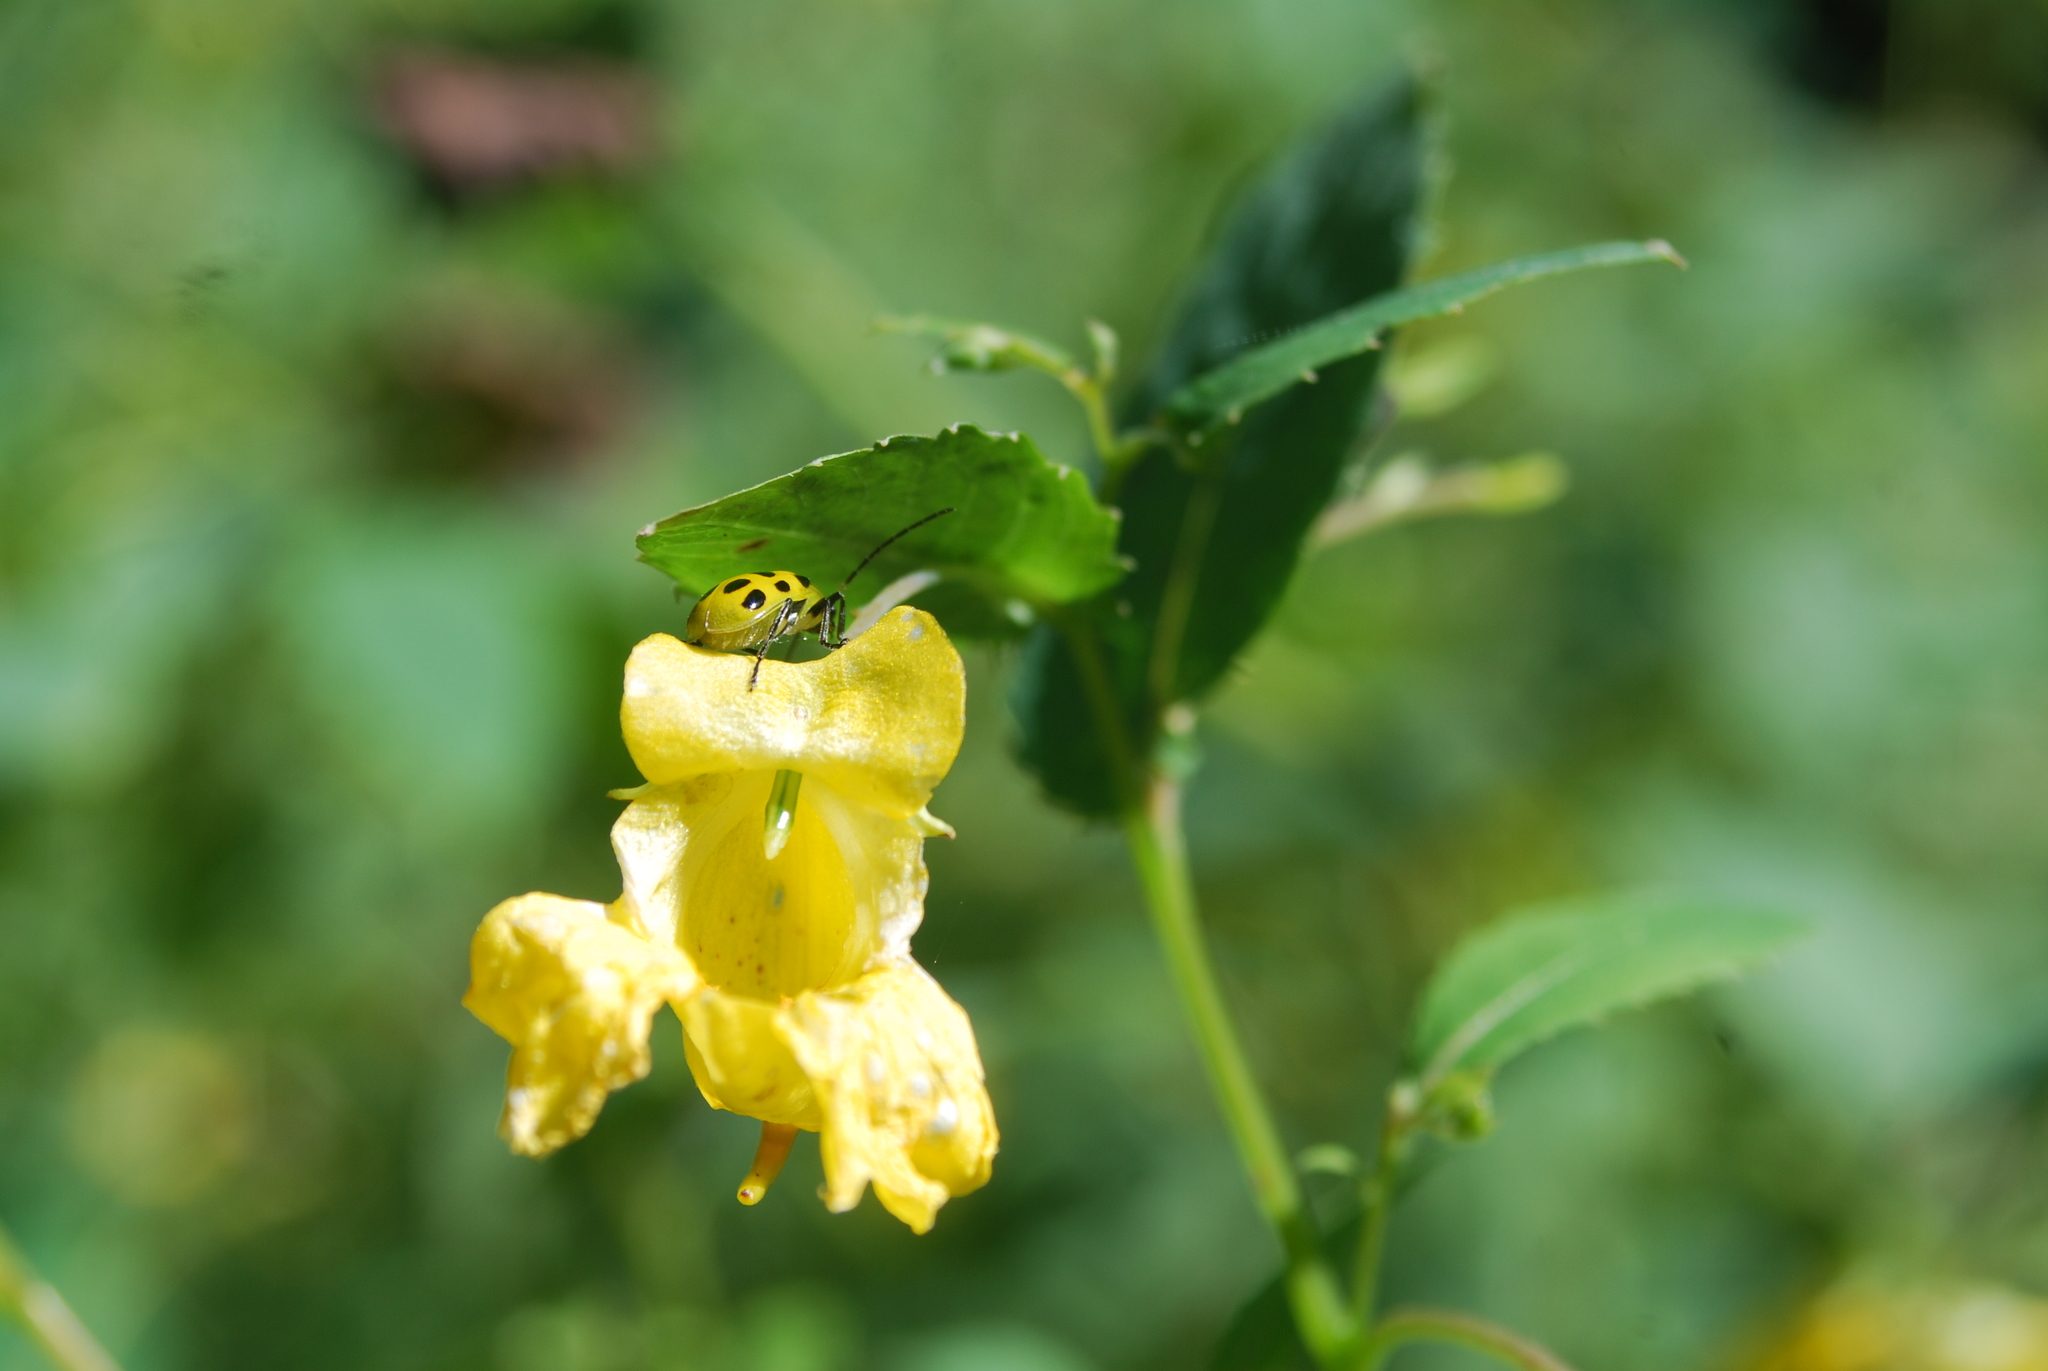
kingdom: Animalia
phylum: Arthropoda
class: Insecta
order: Coleoptera
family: Chrysomelidae
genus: Diabrotica
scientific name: Diabrotica undecimpunctata
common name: Spotted cucumber beetle
